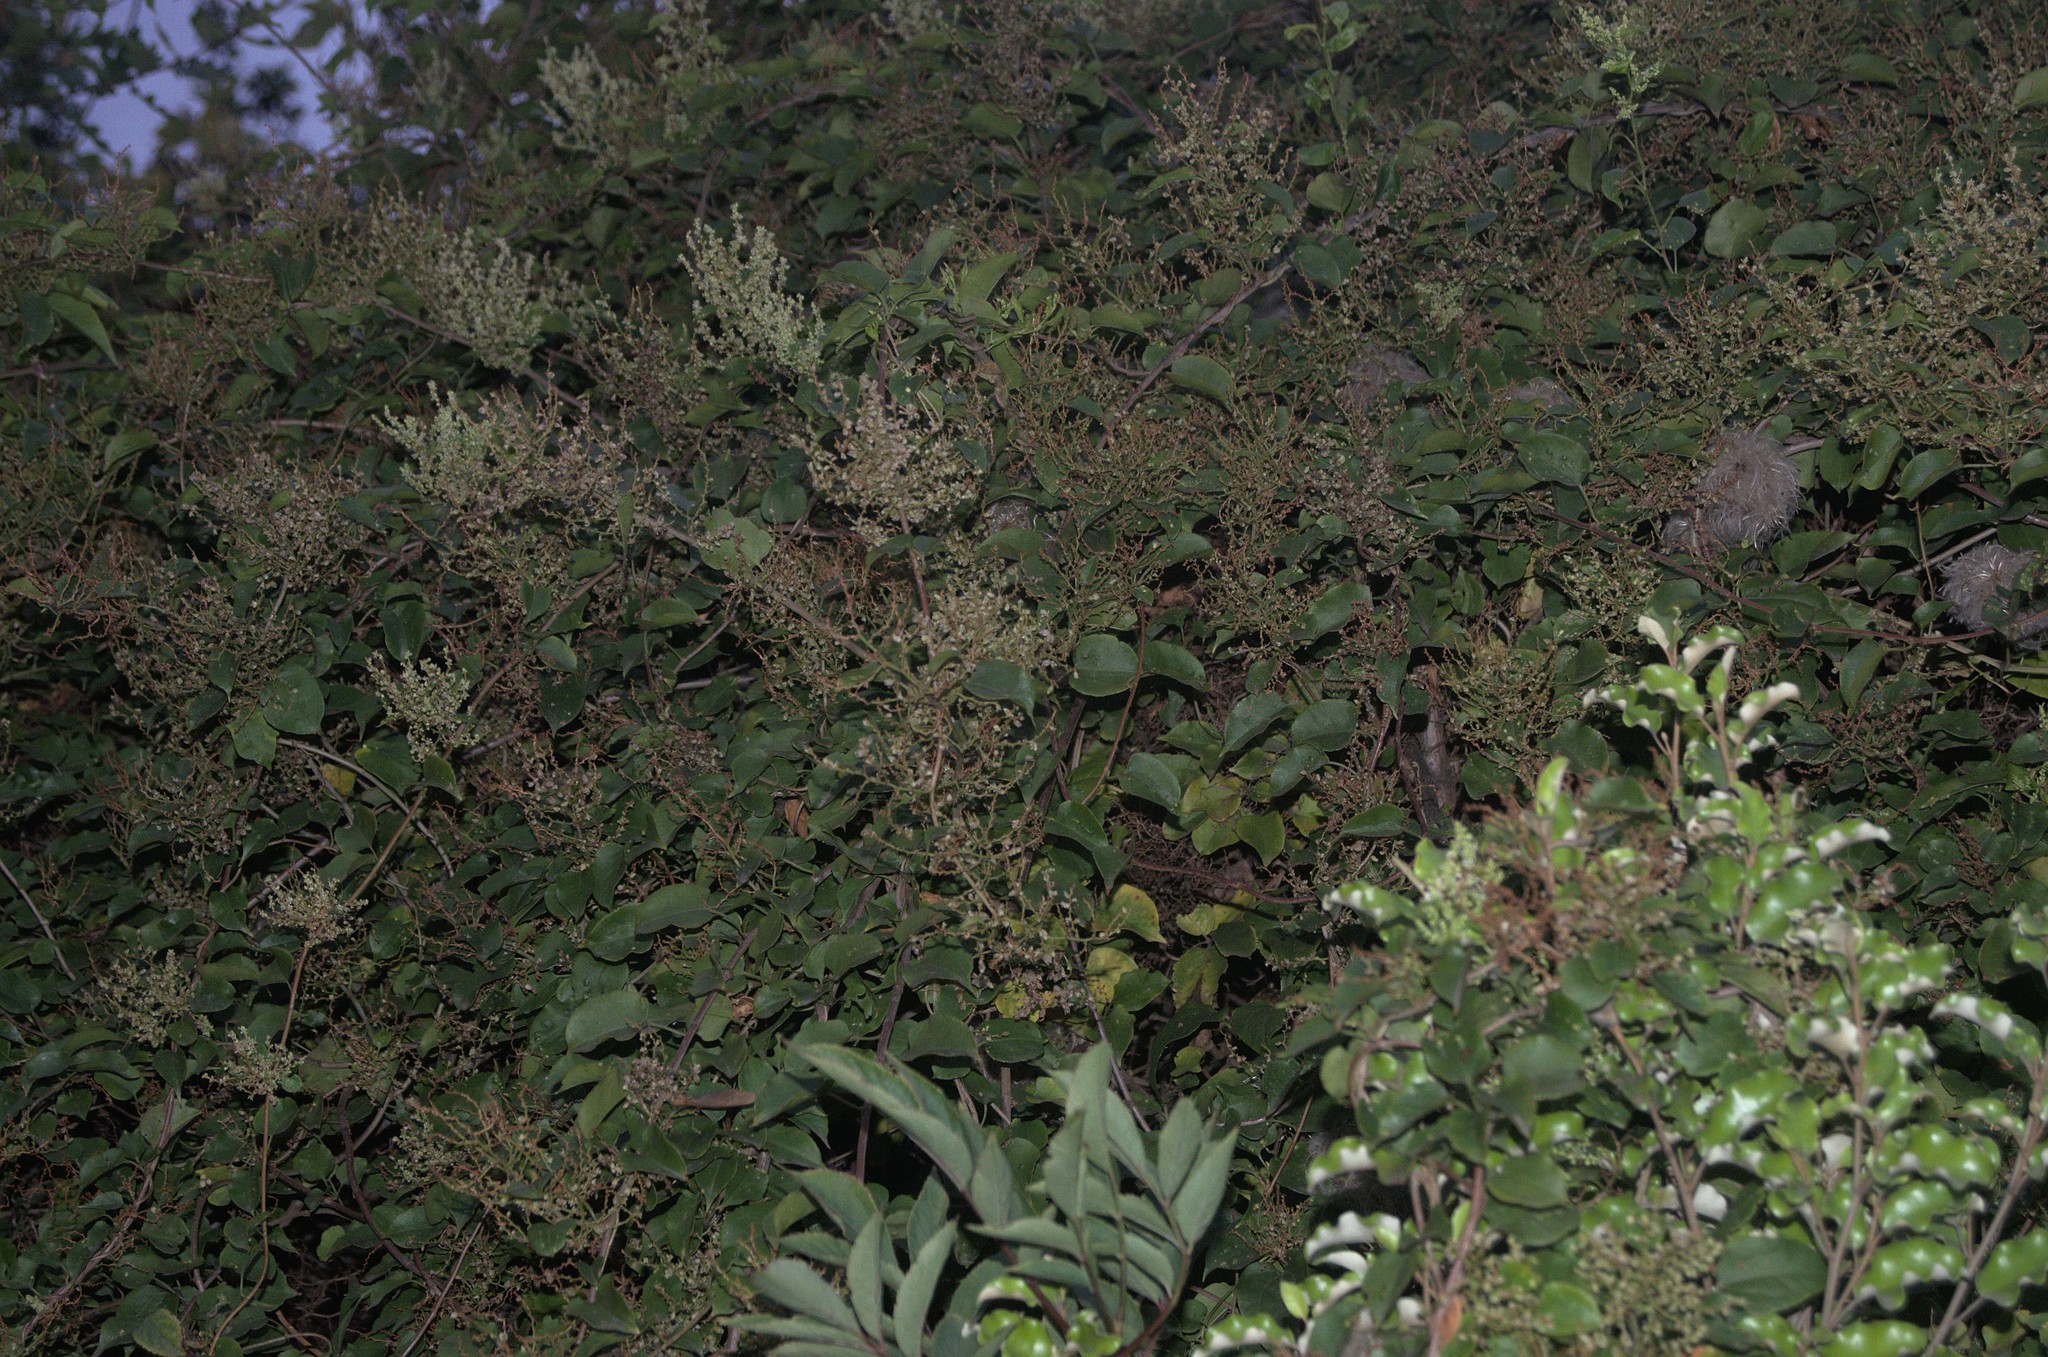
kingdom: Plantae
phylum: Tracheophyta
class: Magnoliopsida
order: Caryophyllales
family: Polygonaceae
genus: Muehlenbeckia
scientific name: Muehlenbeckia australis
